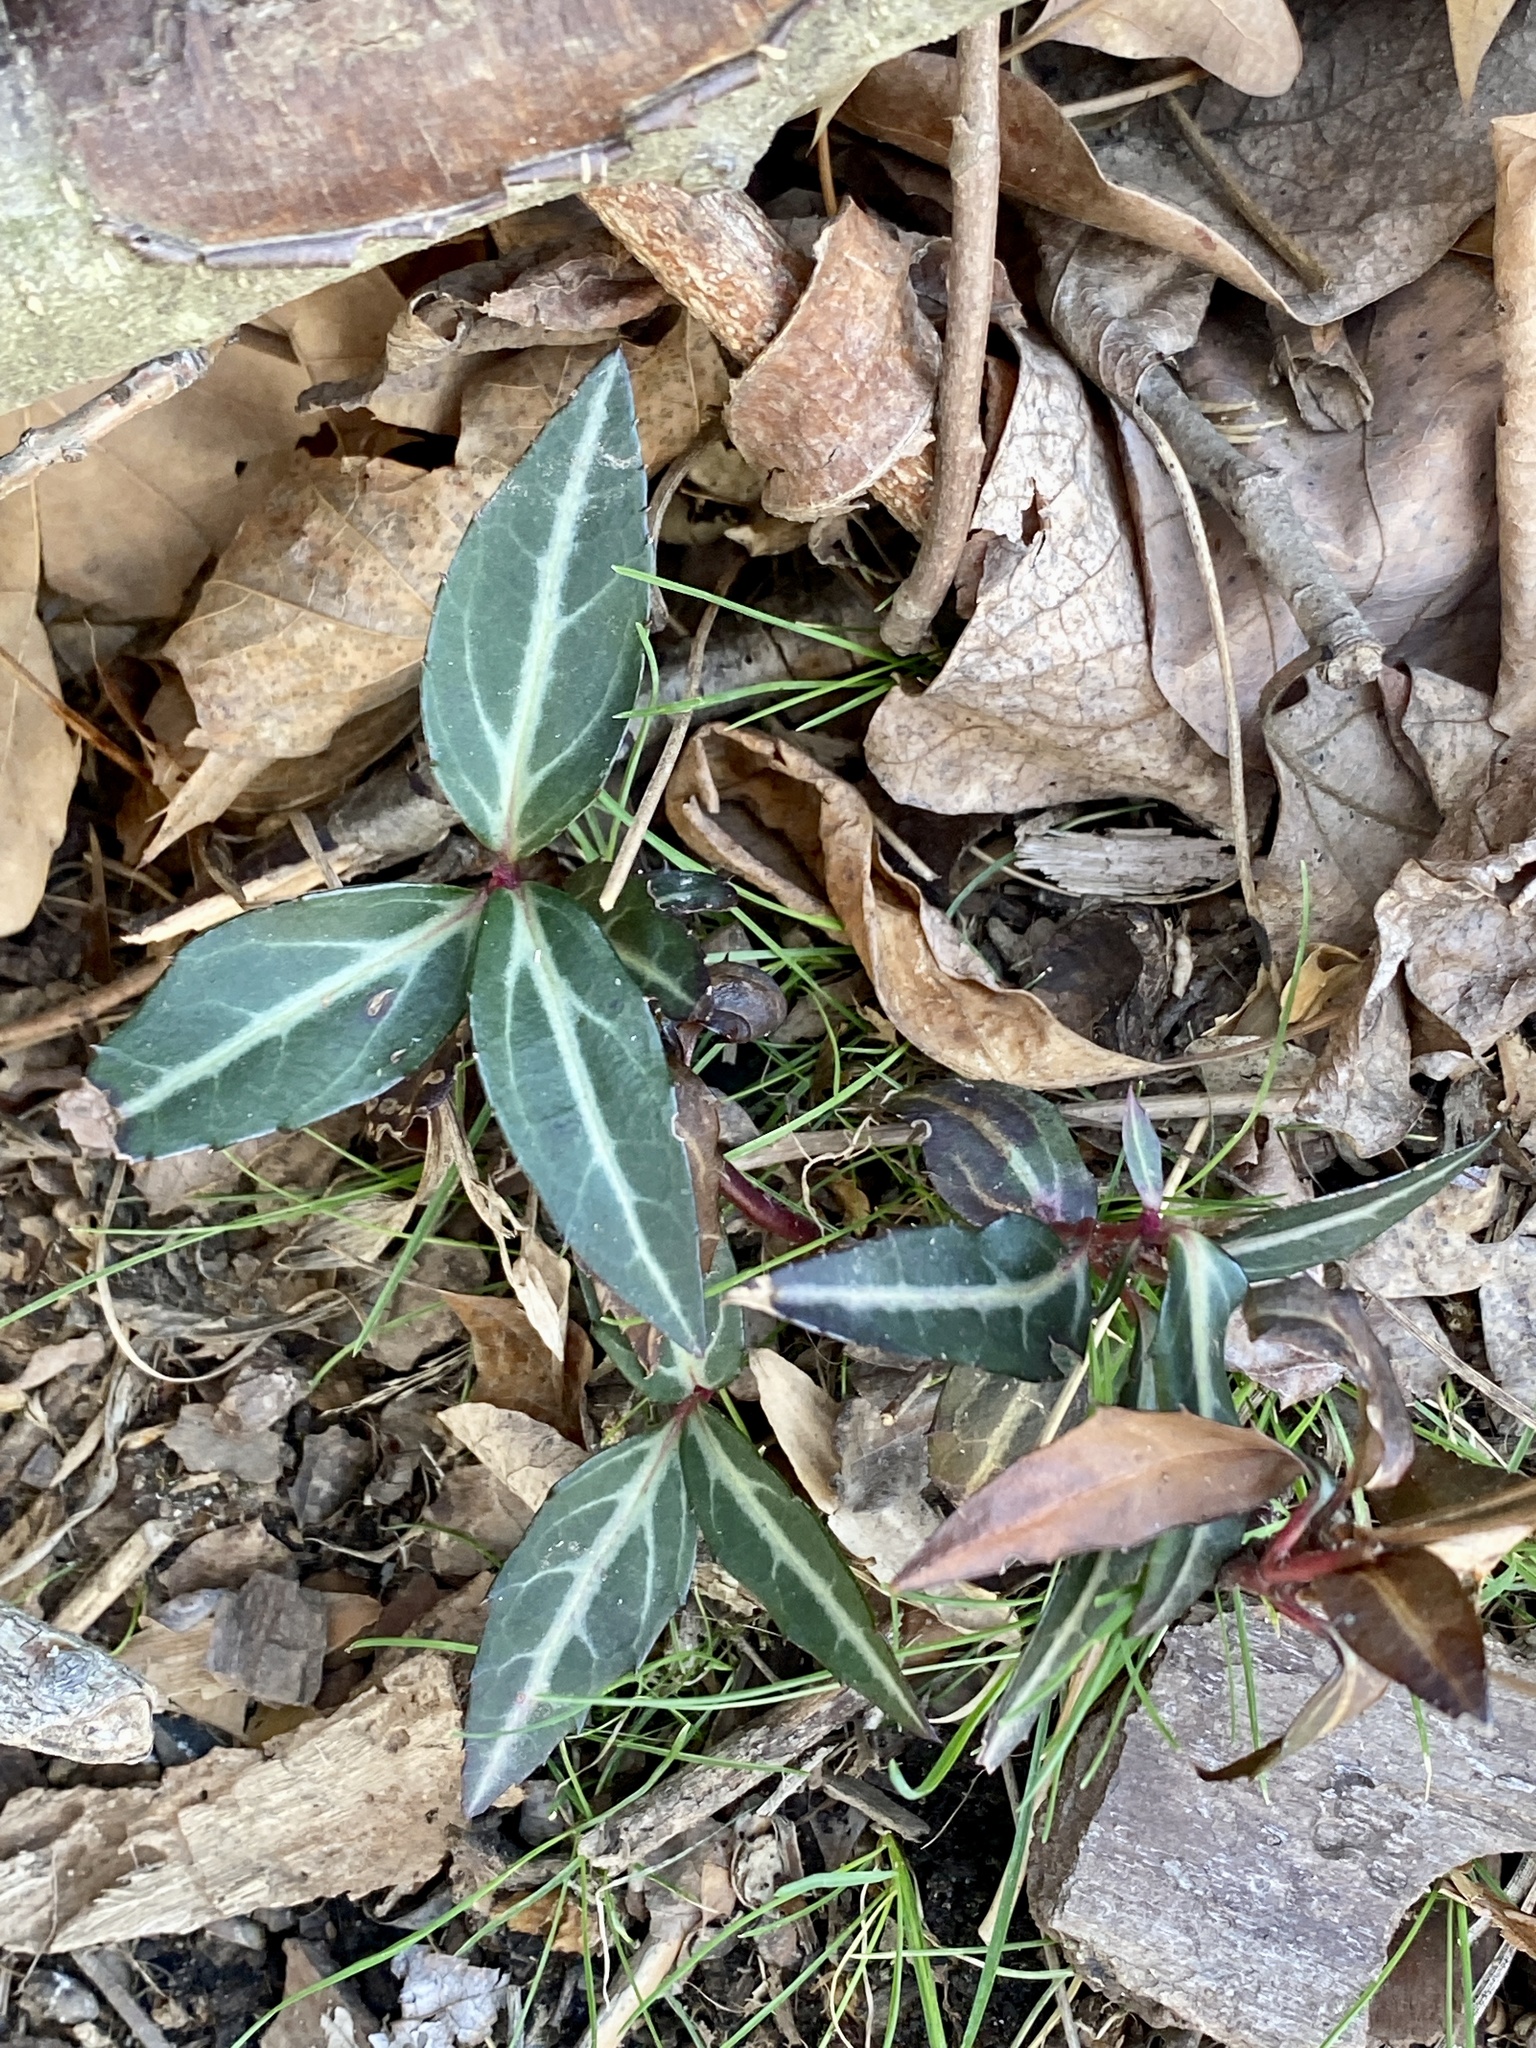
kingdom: Plantae
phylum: Tracheophyta
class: Magnoliopsida
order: Ericales
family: Ericaceae
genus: Chimaphila
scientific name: Chimaphila maculata
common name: Spotted pipsissewa
